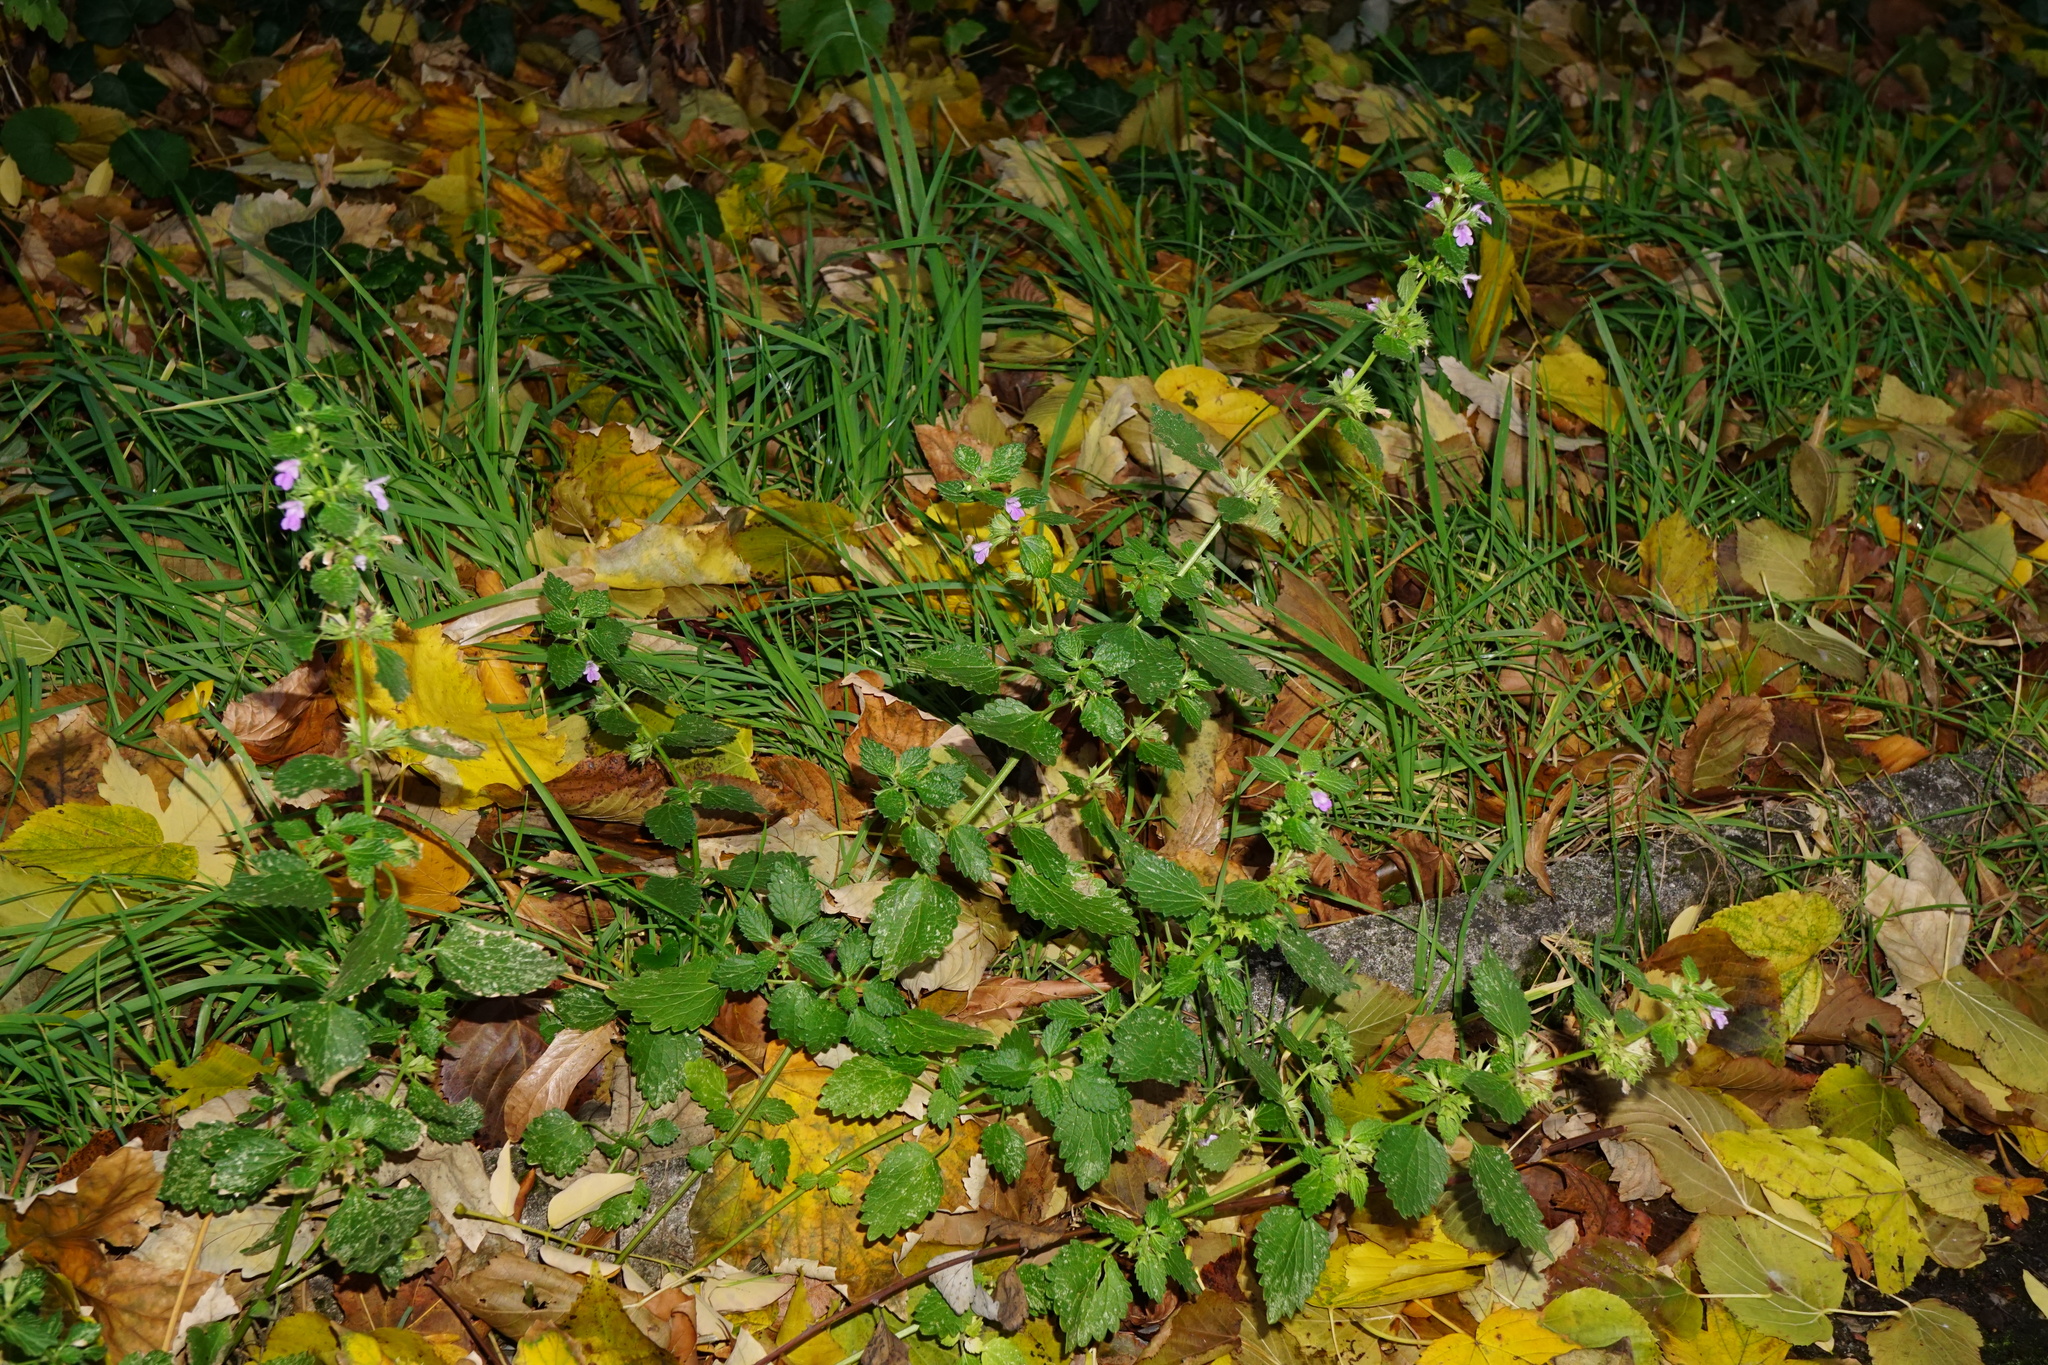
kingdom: Plantae
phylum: Tracheophyta
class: Magnoliopsida
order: Lamiales
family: Lamiaceae
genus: Ballota
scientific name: Ballota nigra
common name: Black horehound
